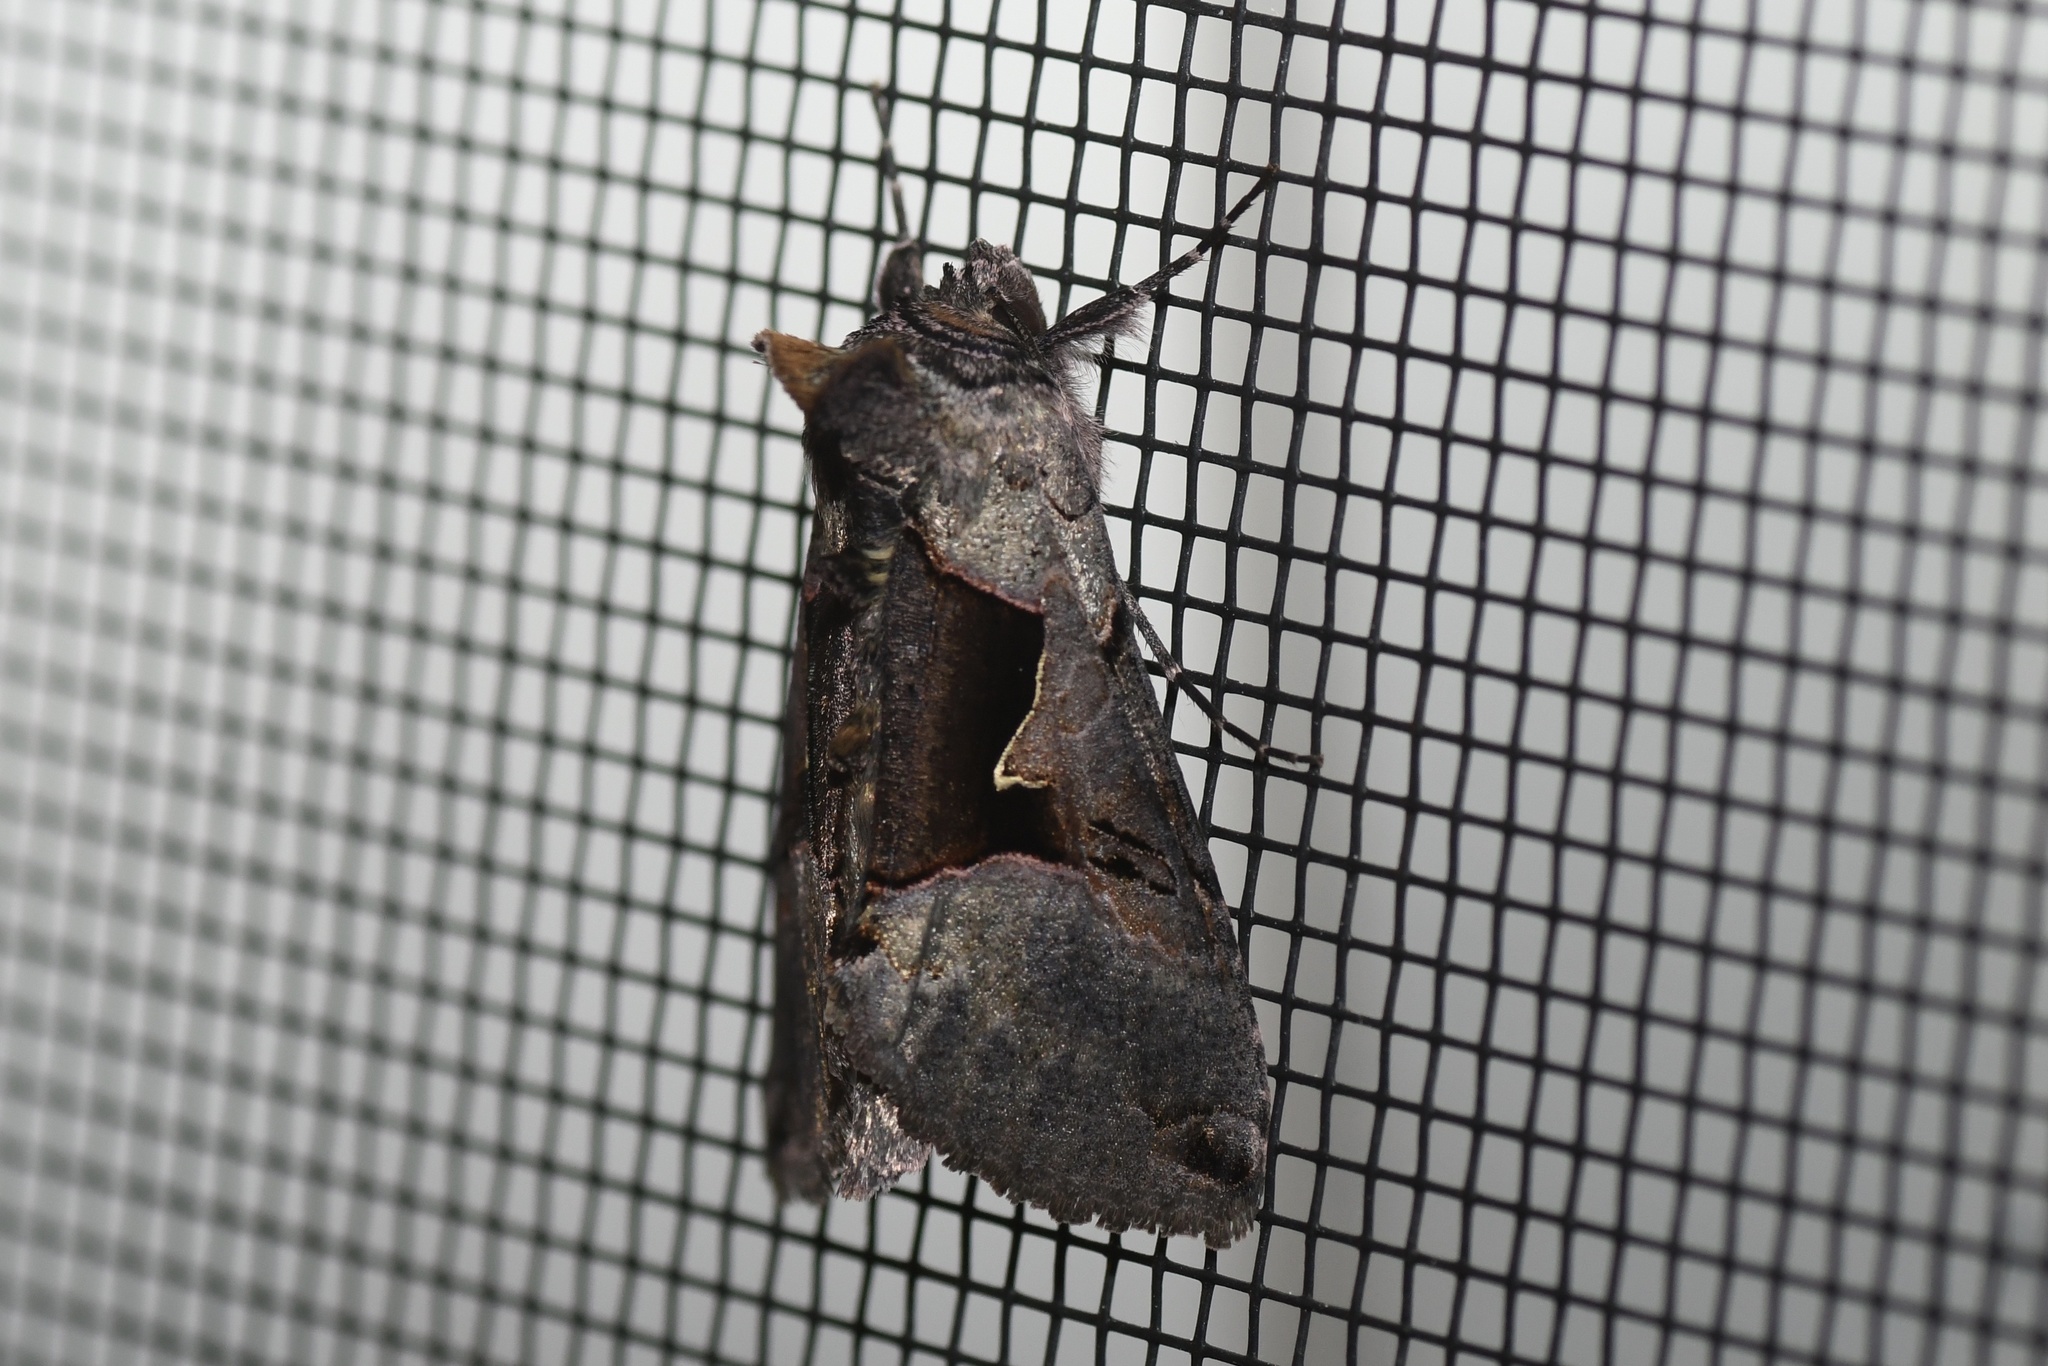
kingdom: Animalia
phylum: Arthropoda
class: Insecta
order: Lepidoptera
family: Noctuidae
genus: Autographa
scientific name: Autographa ampla
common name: Large looper moth
